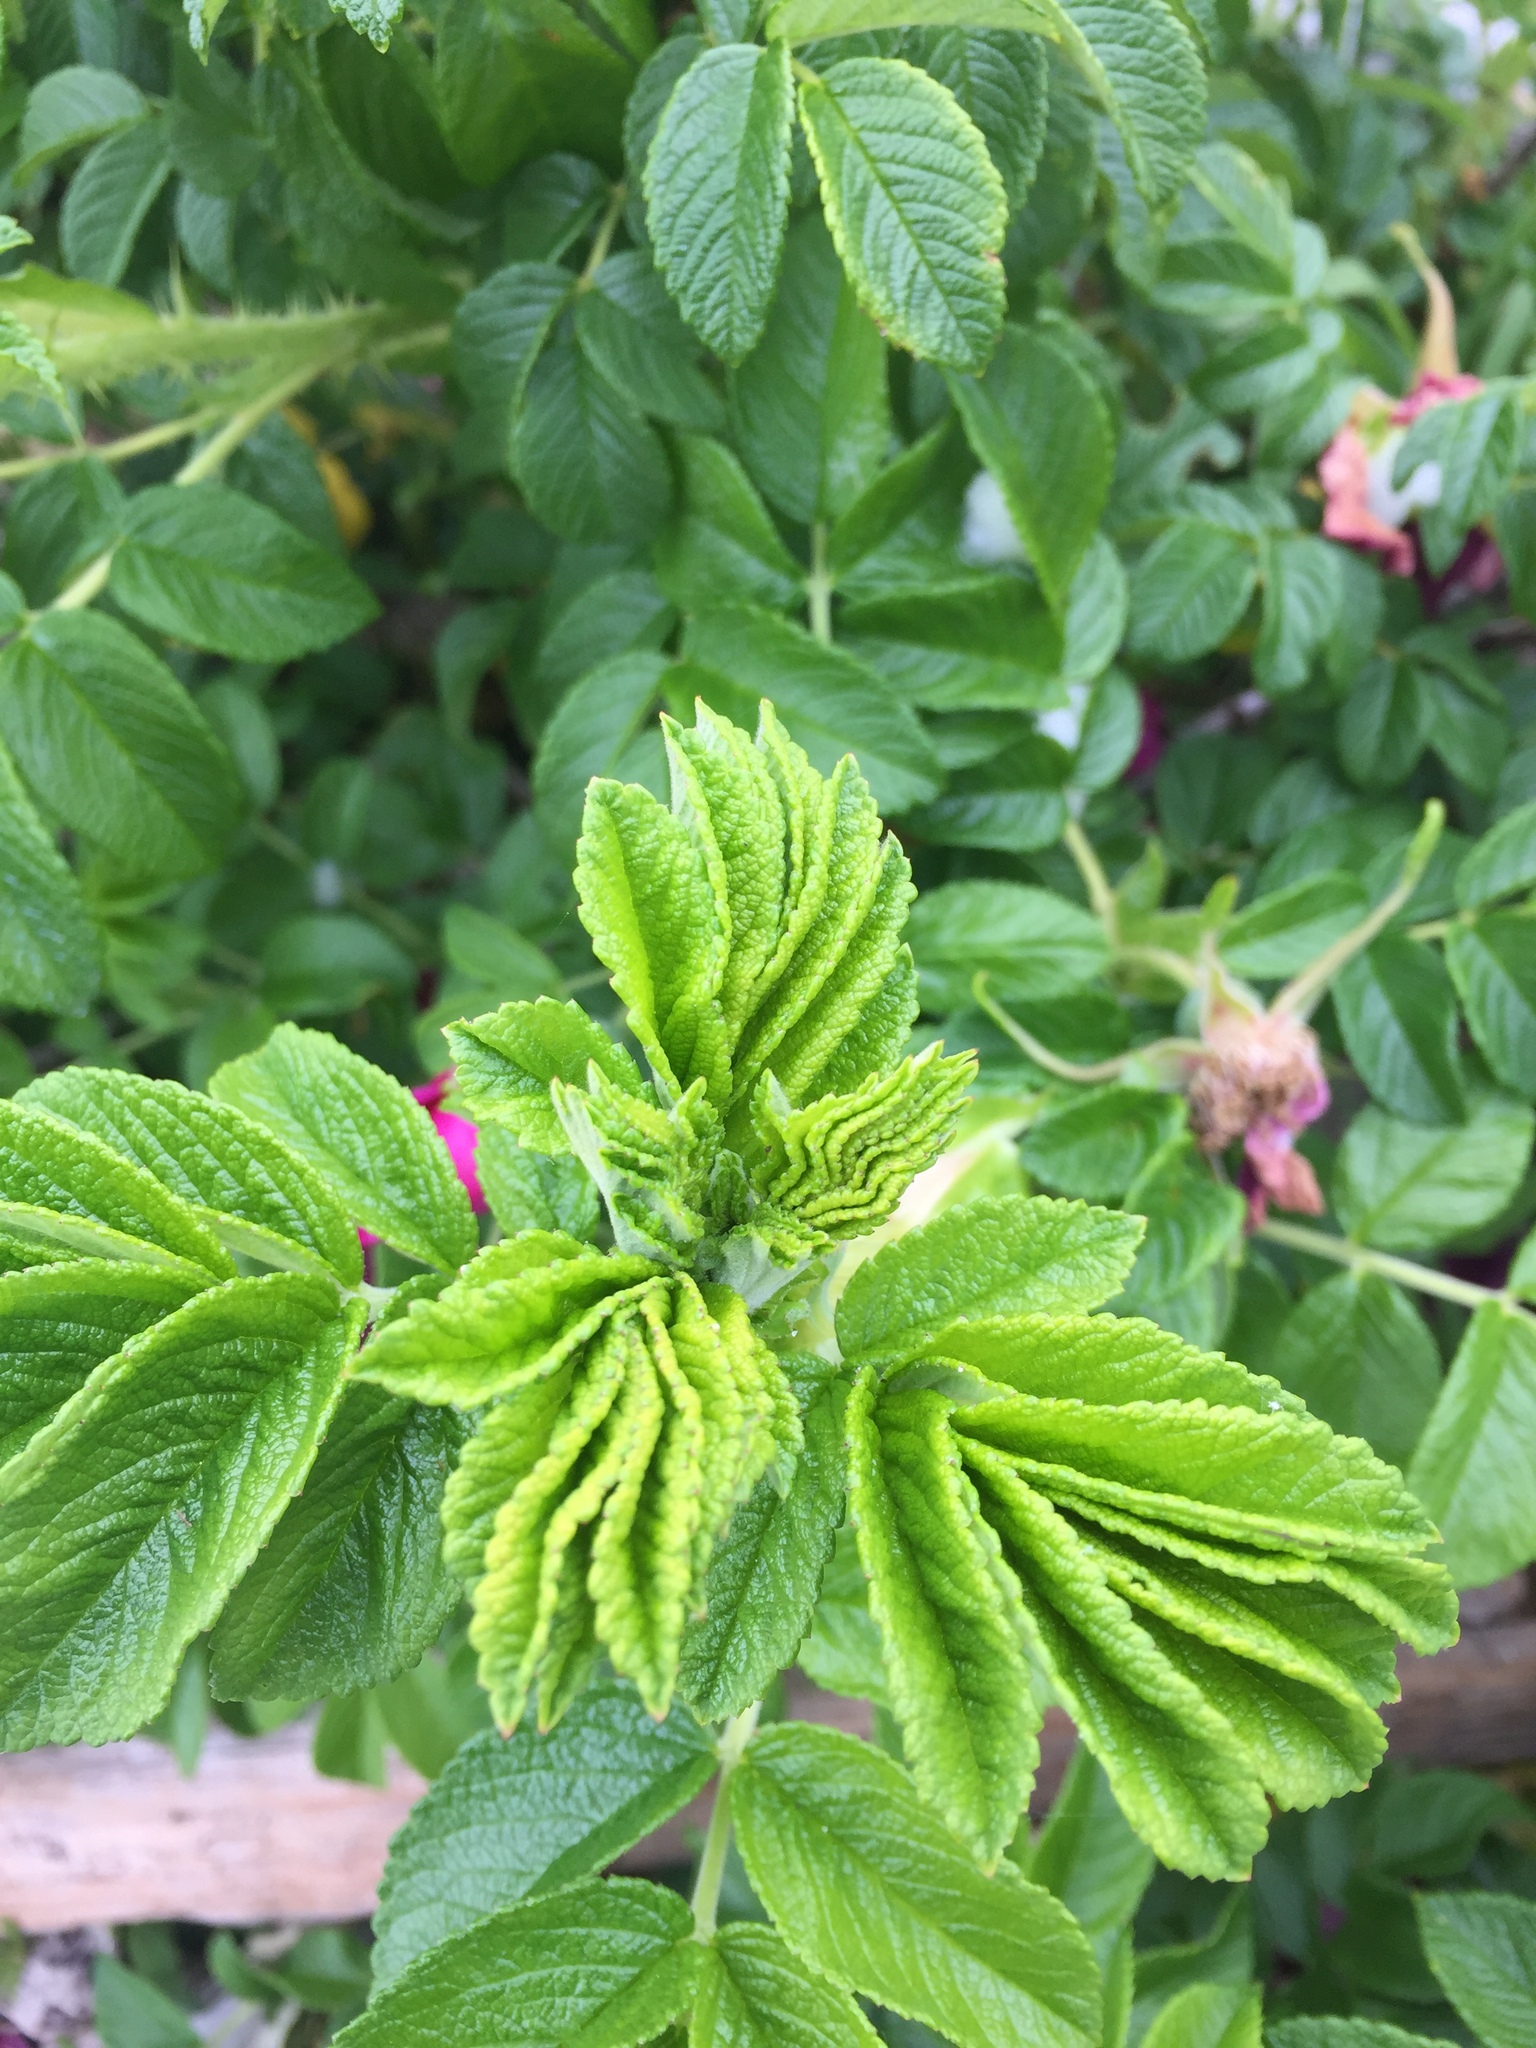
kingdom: Plantae
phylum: Tracheophyta
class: Magnoliopsida
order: Rosales
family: Rosaceae
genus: Rosa
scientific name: Rosa rugosa
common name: Japanese rose
